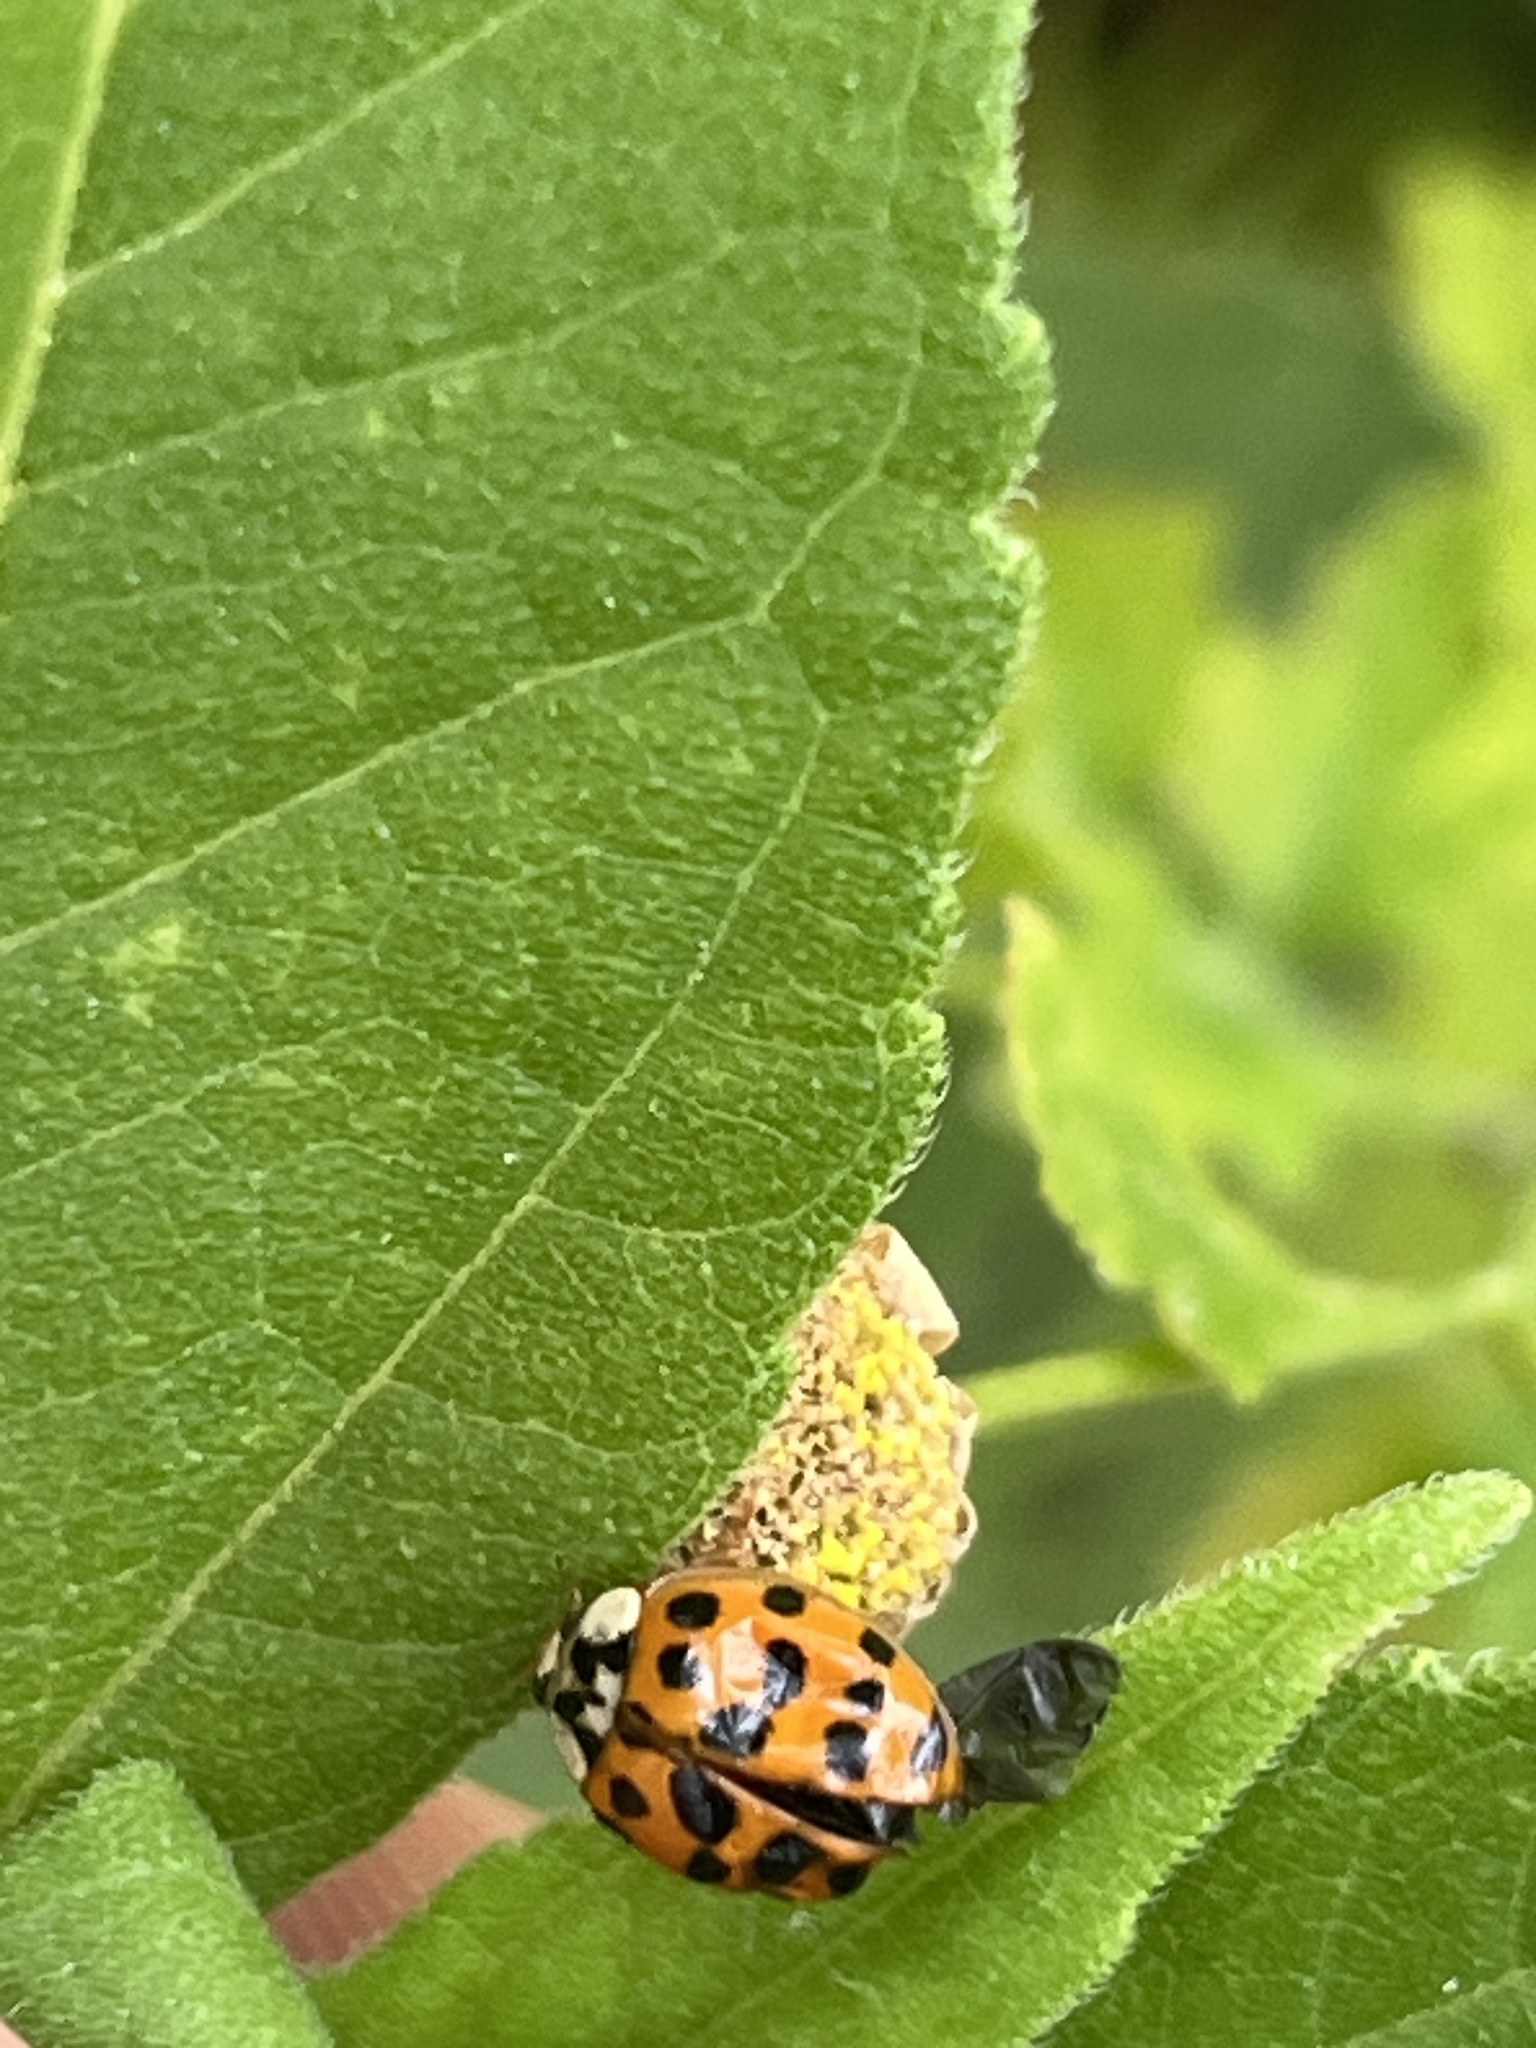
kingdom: Animalia
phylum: Arthropoda
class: Insecta
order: Coleoptera
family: Coccinellidae
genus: Harmonia
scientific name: Harmonia axyridis
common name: Harlequin ladybird
